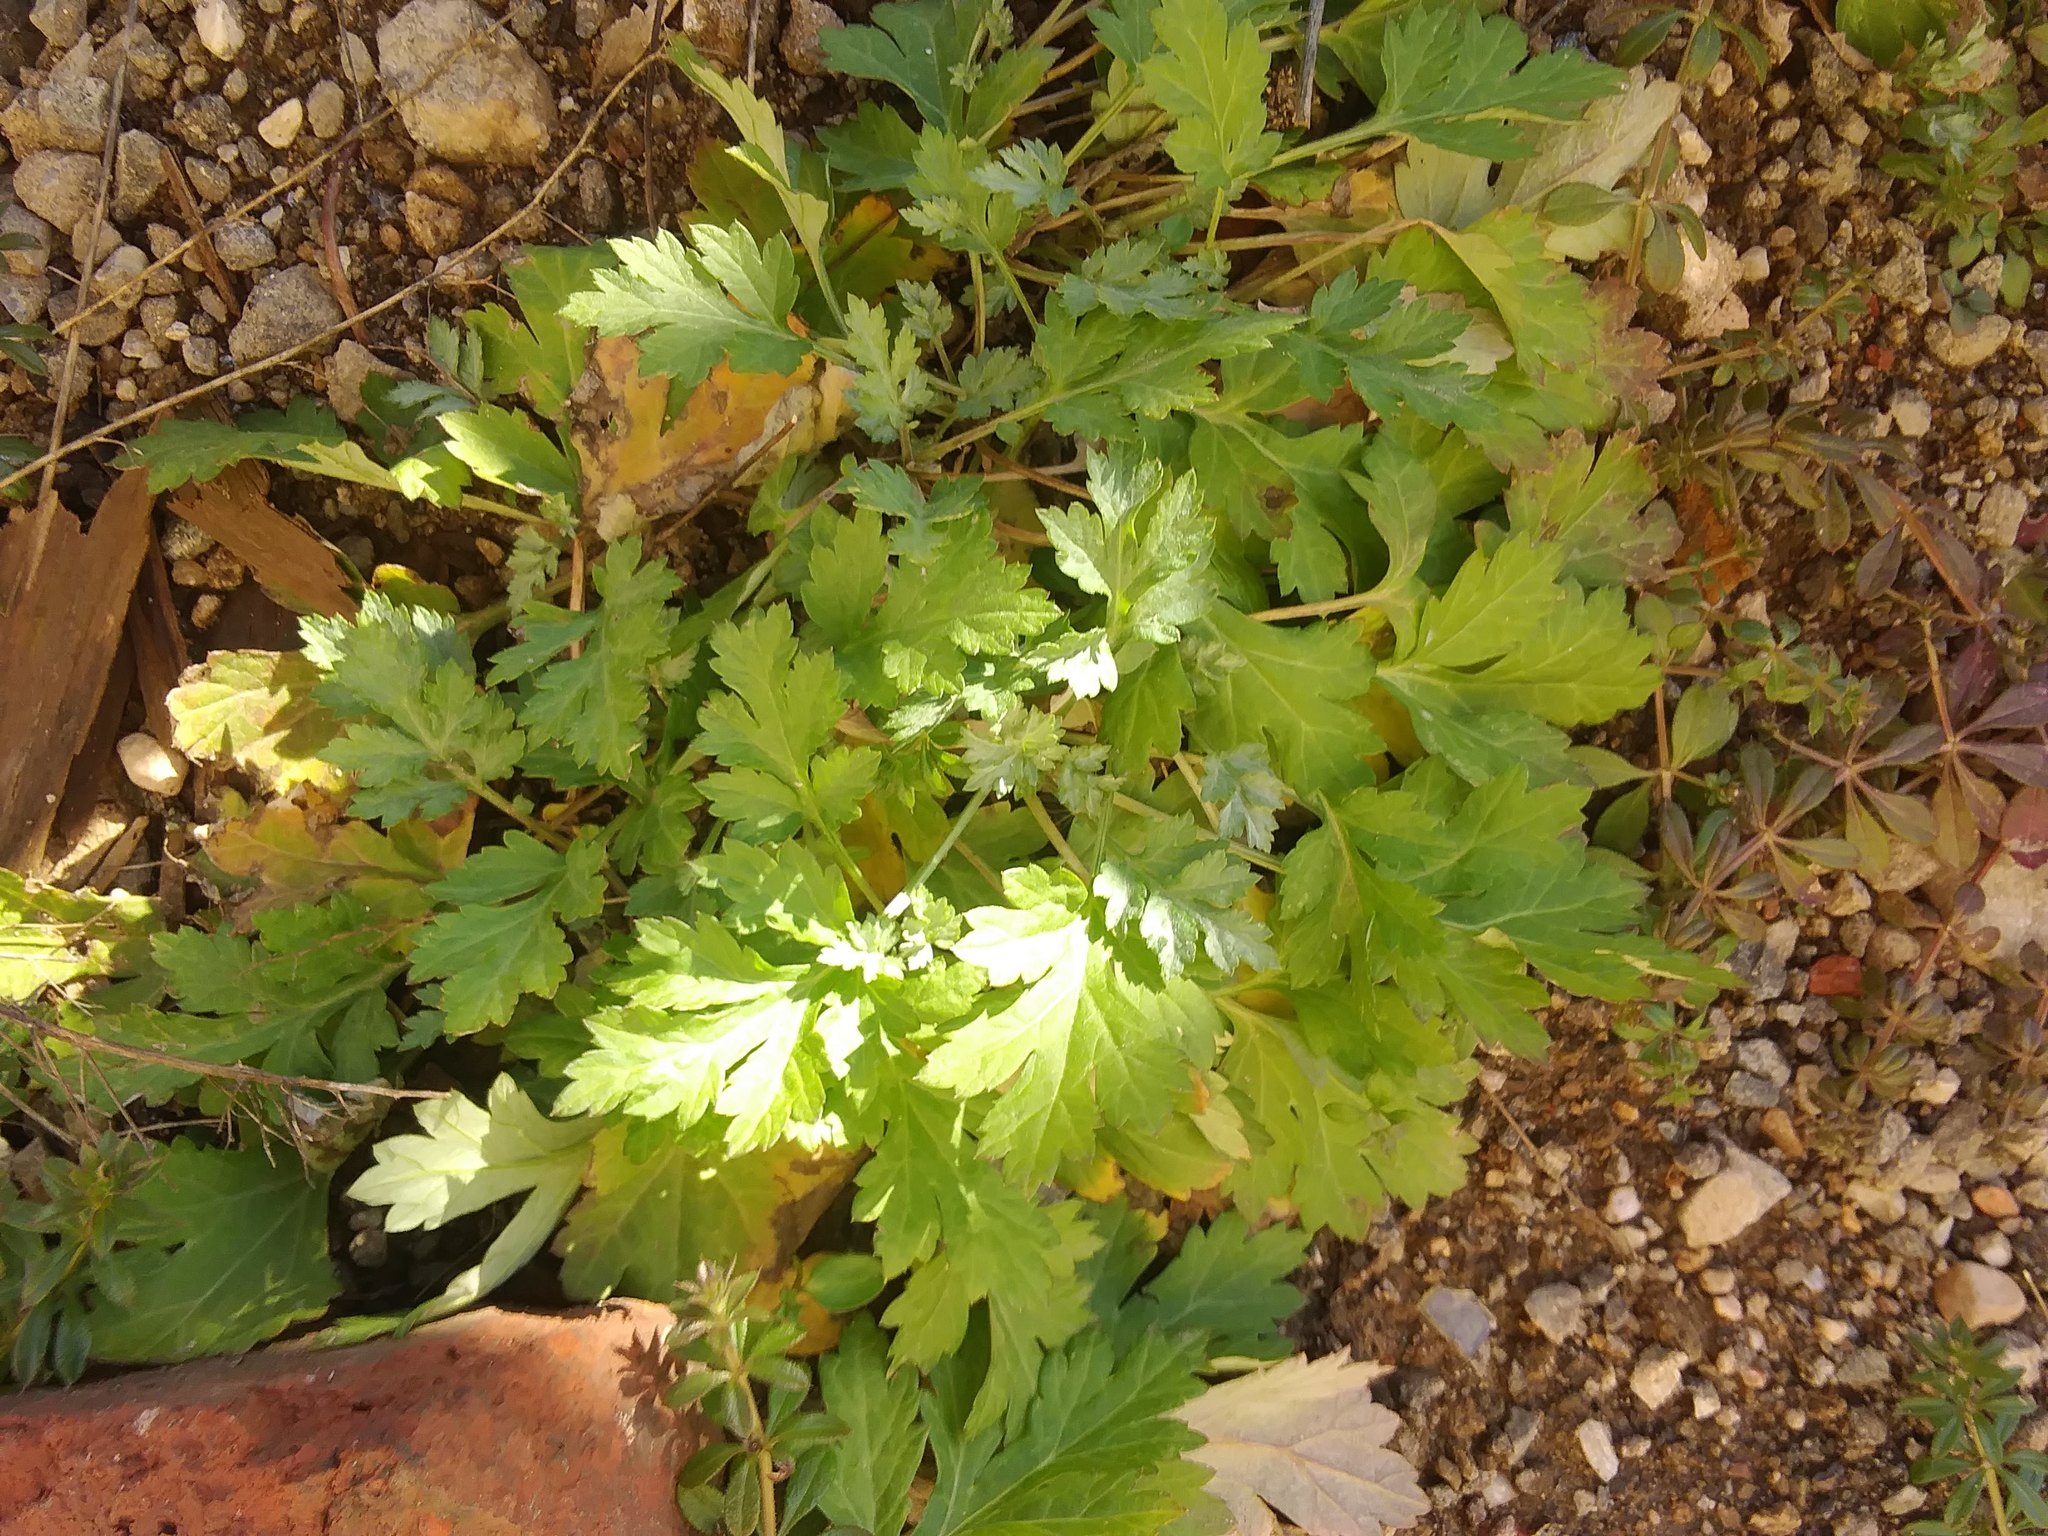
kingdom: Plantae
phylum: Tracheophyta
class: Magnoliopsida
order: Asterales
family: Asteraceae
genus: Artemisia
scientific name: Artemisia vulgaris
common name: Mugwort
